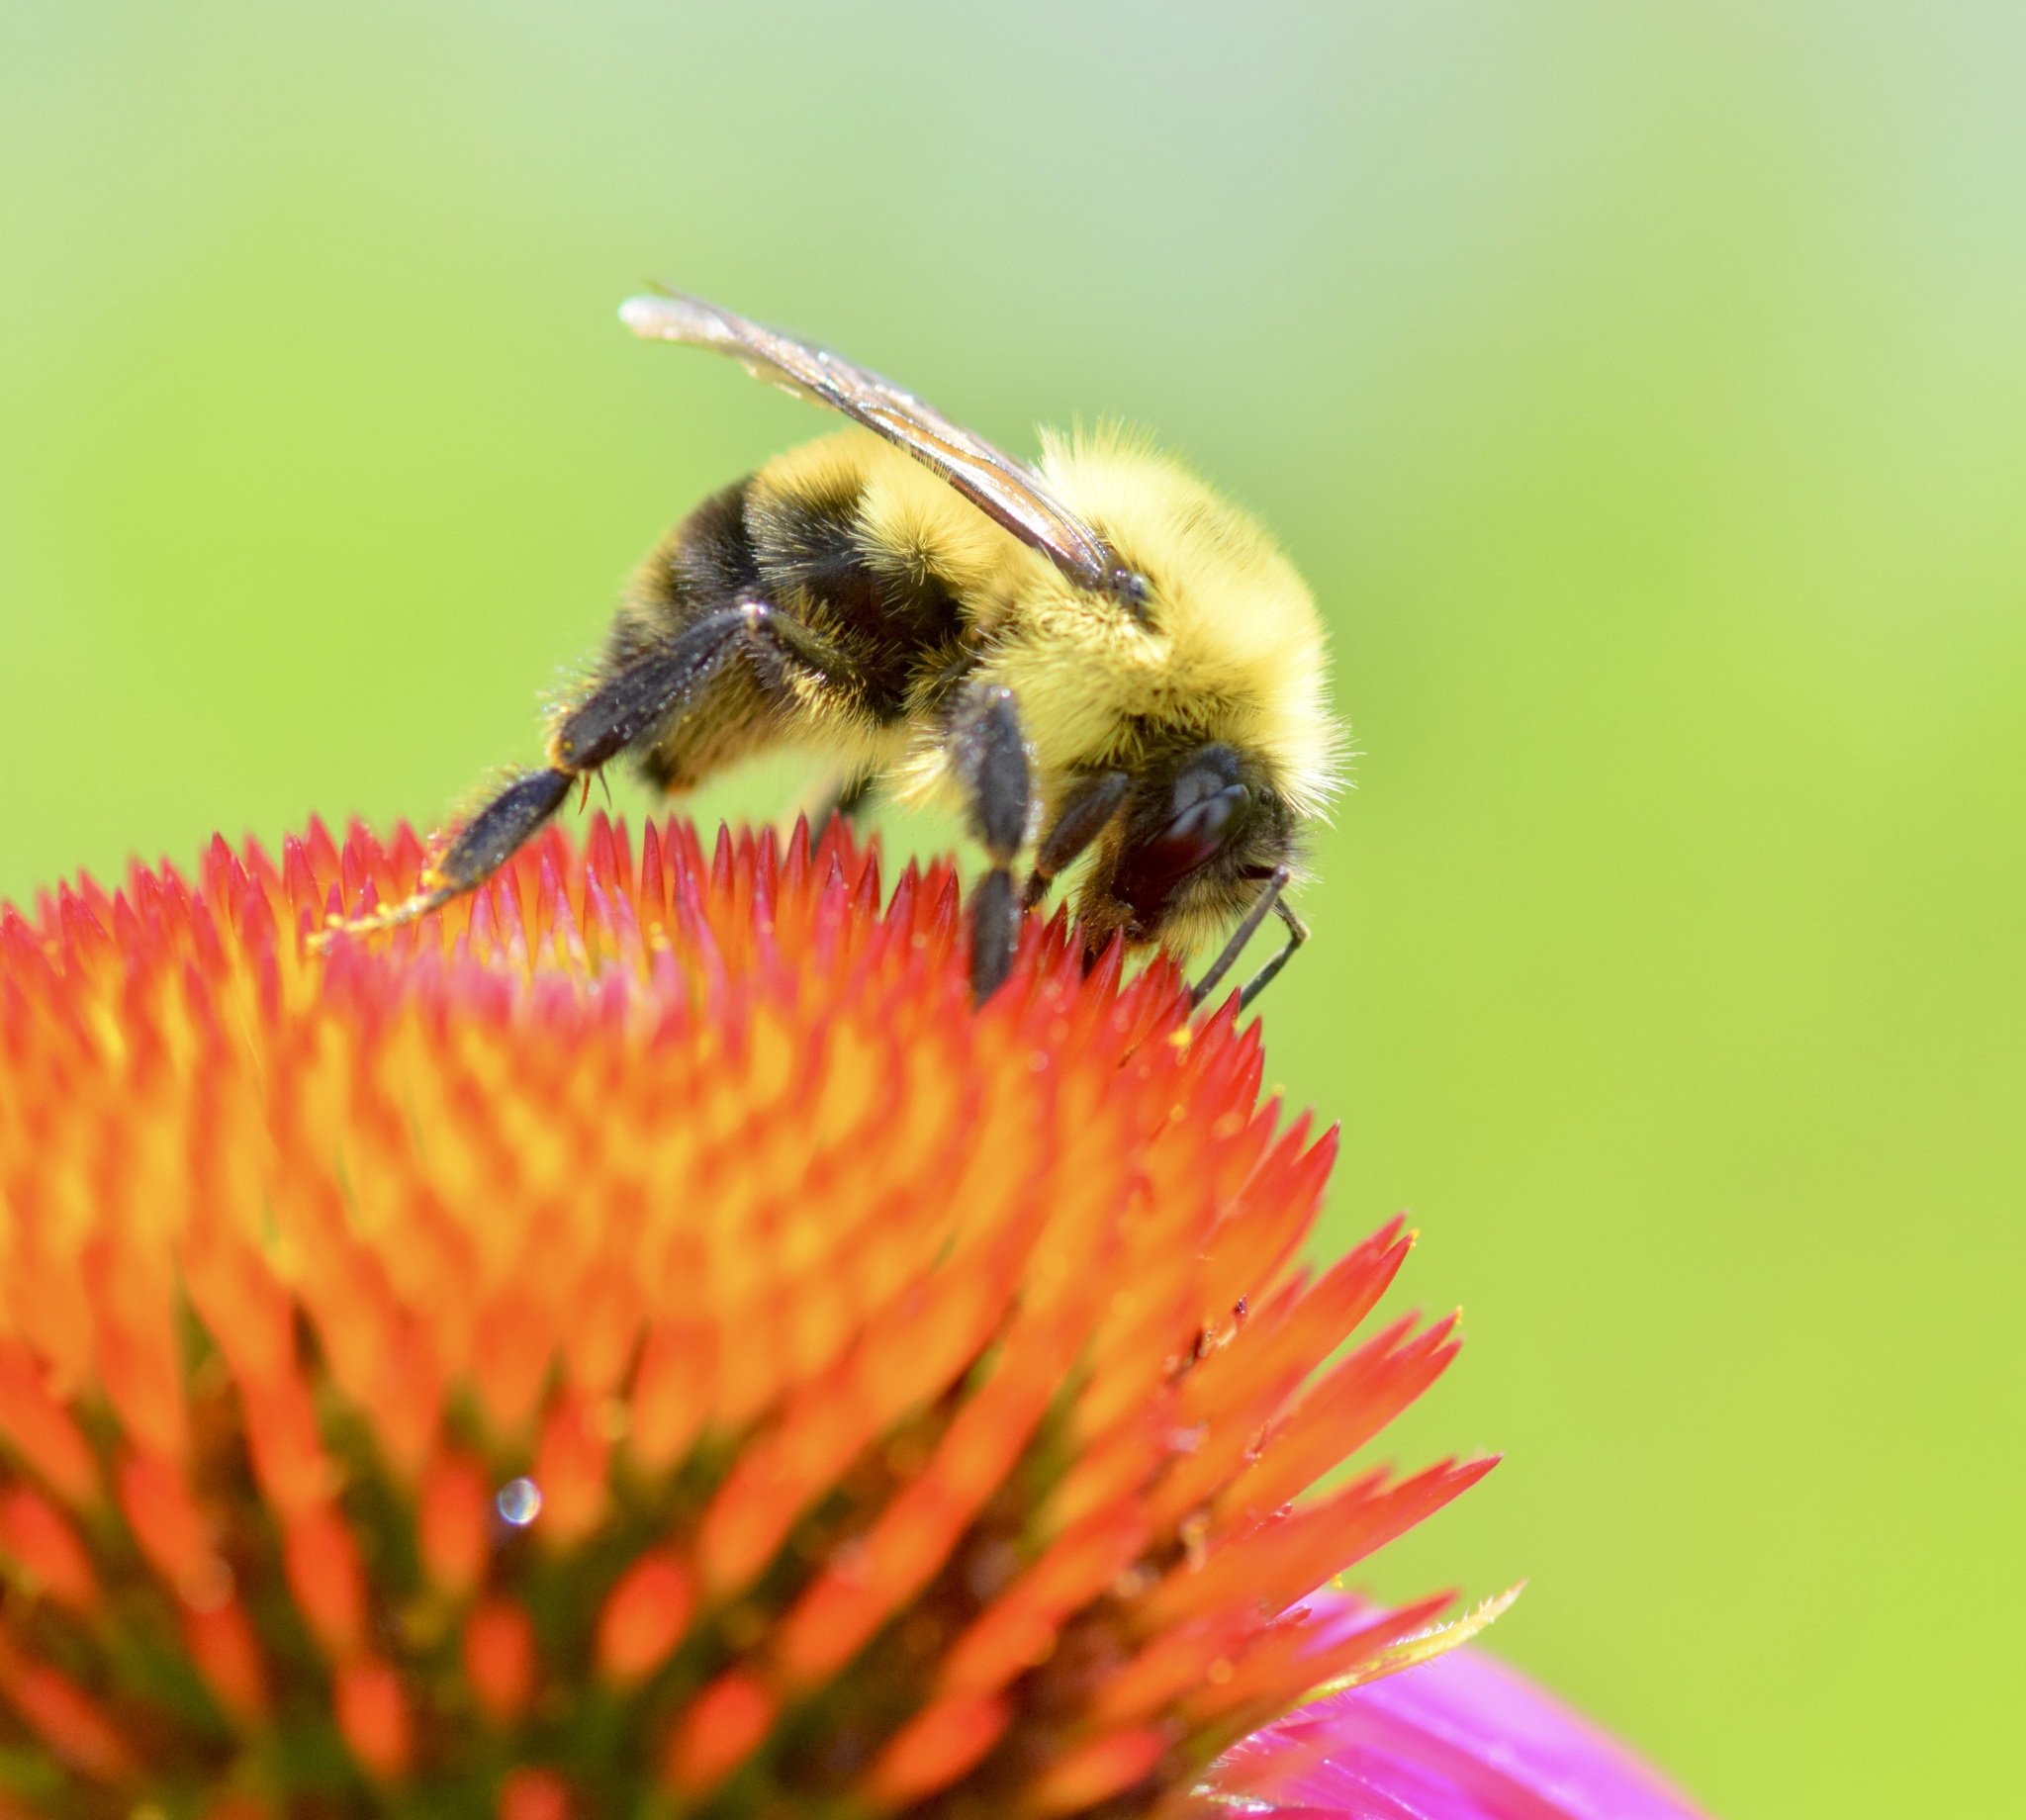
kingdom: Animalia
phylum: Arthropoda
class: Insecta
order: Hymenoptera
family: Apidae
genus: Bombus
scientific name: Bombus bimaculatus
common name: Two-spotted bumble bee
